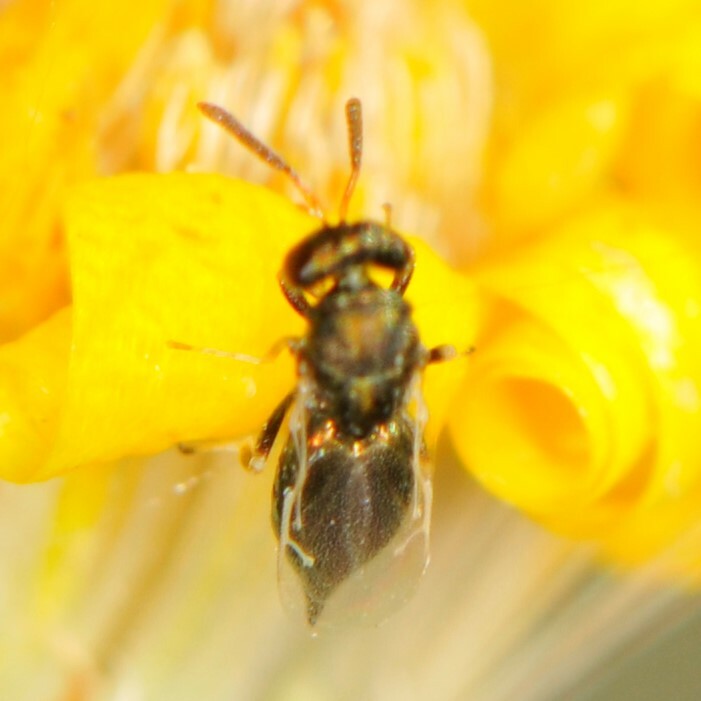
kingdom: Animalia
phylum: Arthropoda
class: Insecta
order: Hymenoptera
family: Pteromalini
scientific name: Pteromalini
